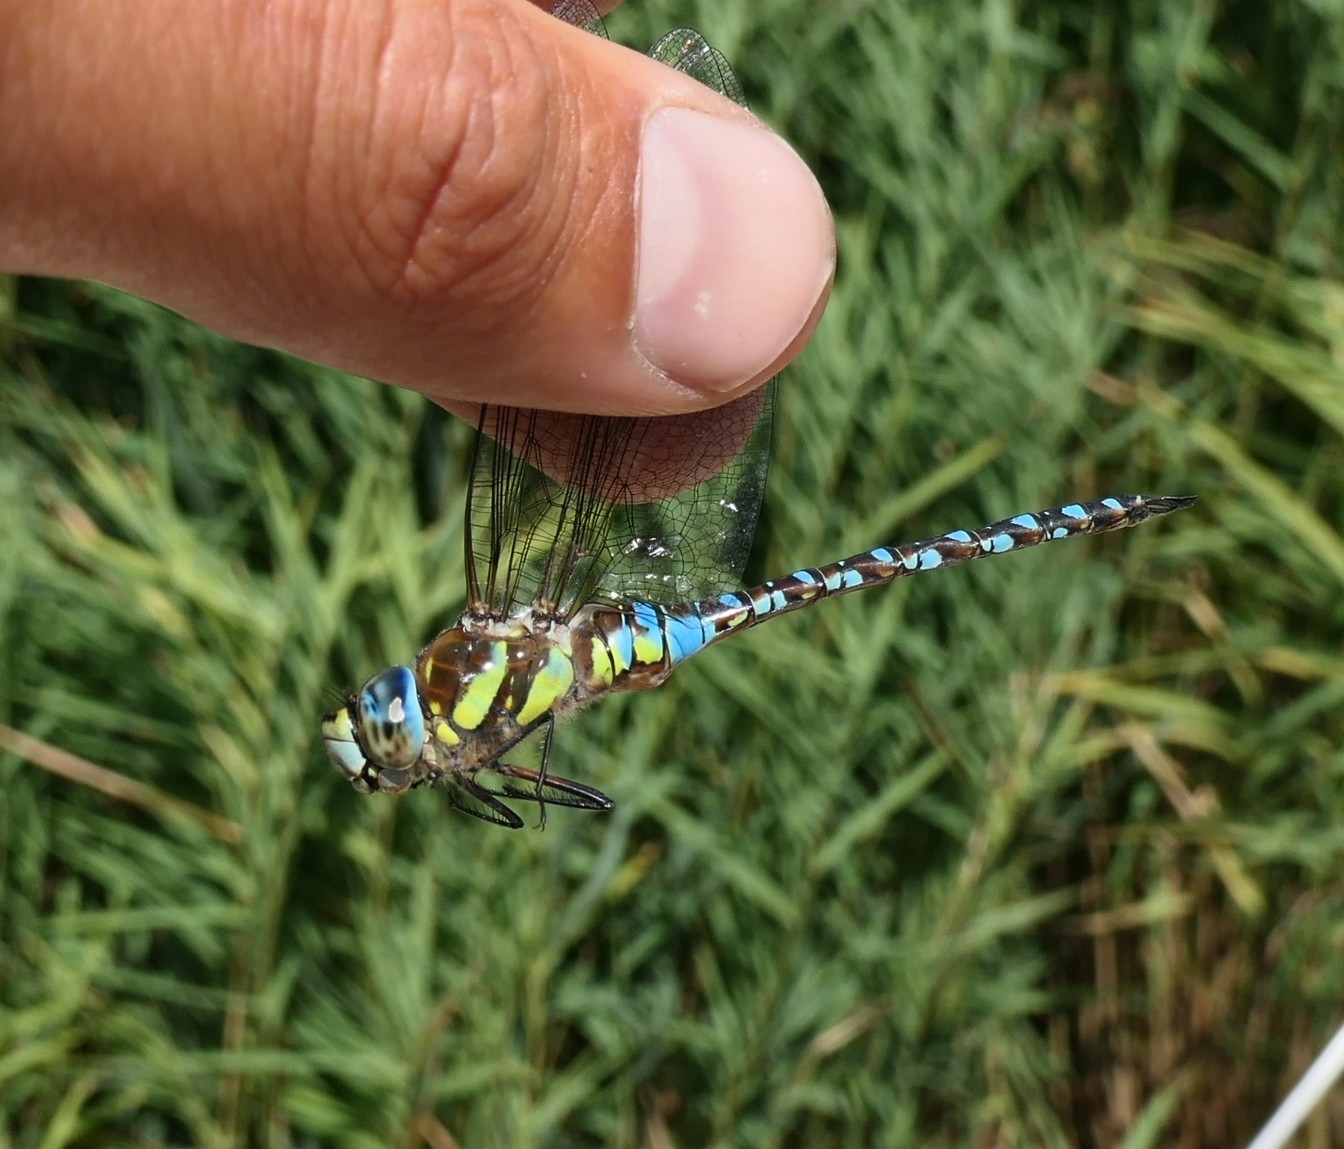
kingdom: Animalia
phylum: Arthropoda
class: Insecta
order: Odonata
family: Aeshnidae
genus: Aeshna
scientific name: Aeshna mixta
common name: Migrant hawker
